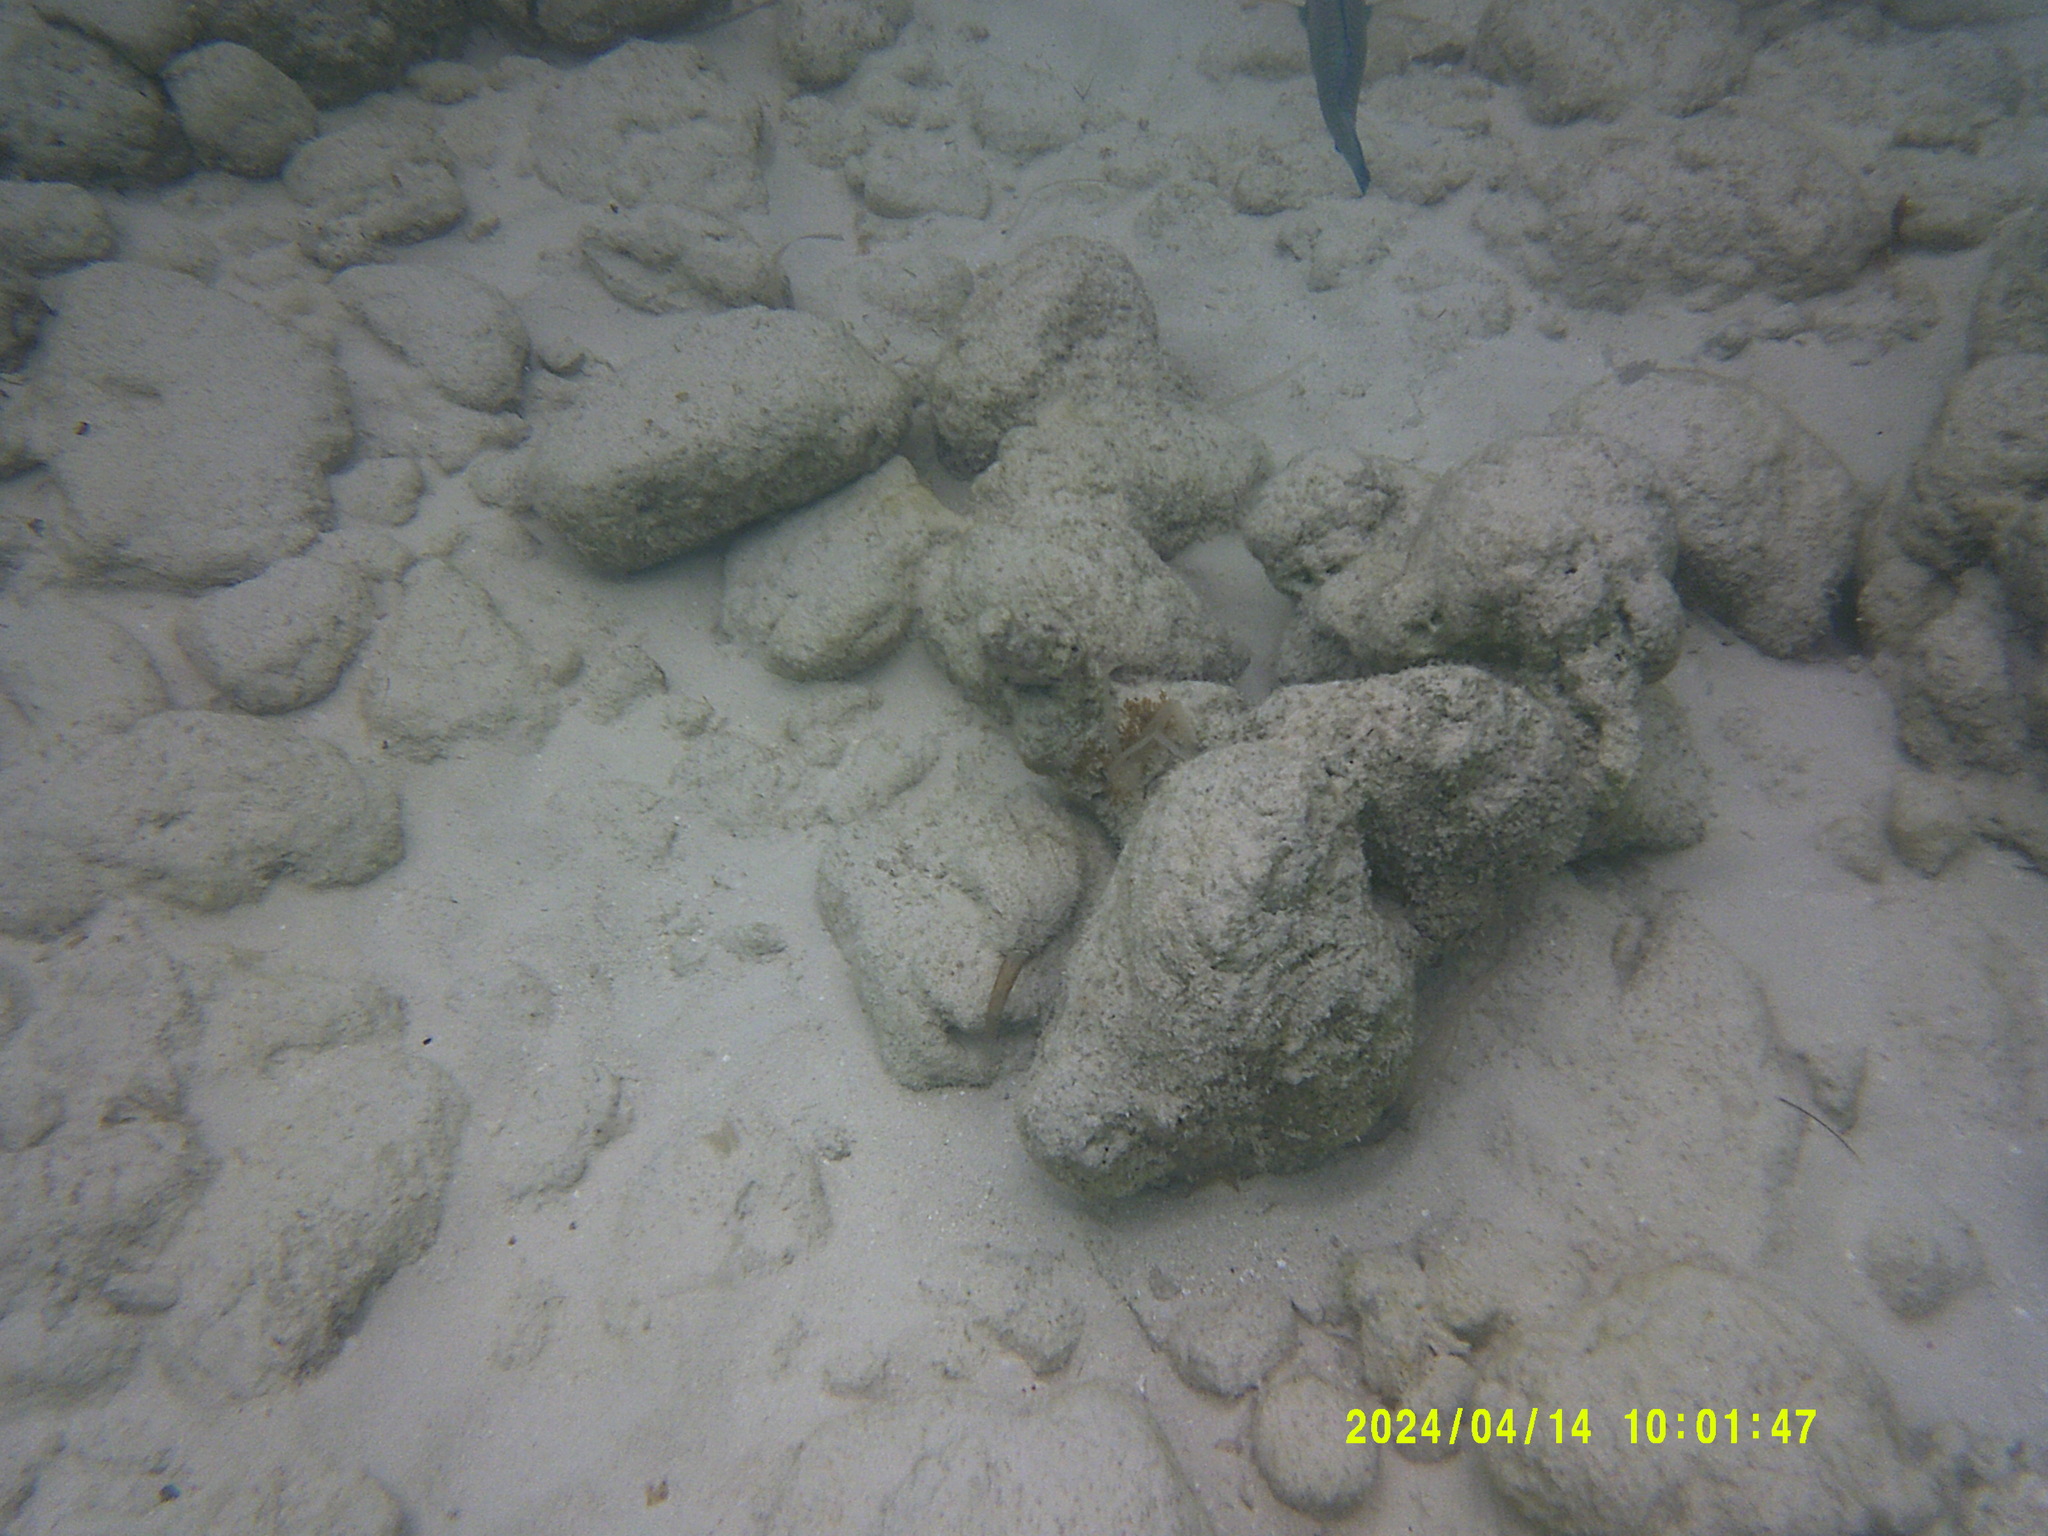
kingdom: Animalia
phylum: Chordata
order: Perciformes
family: Scaridae
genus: Scarus
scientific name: Scarus iseri
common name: Striped parrotfish
